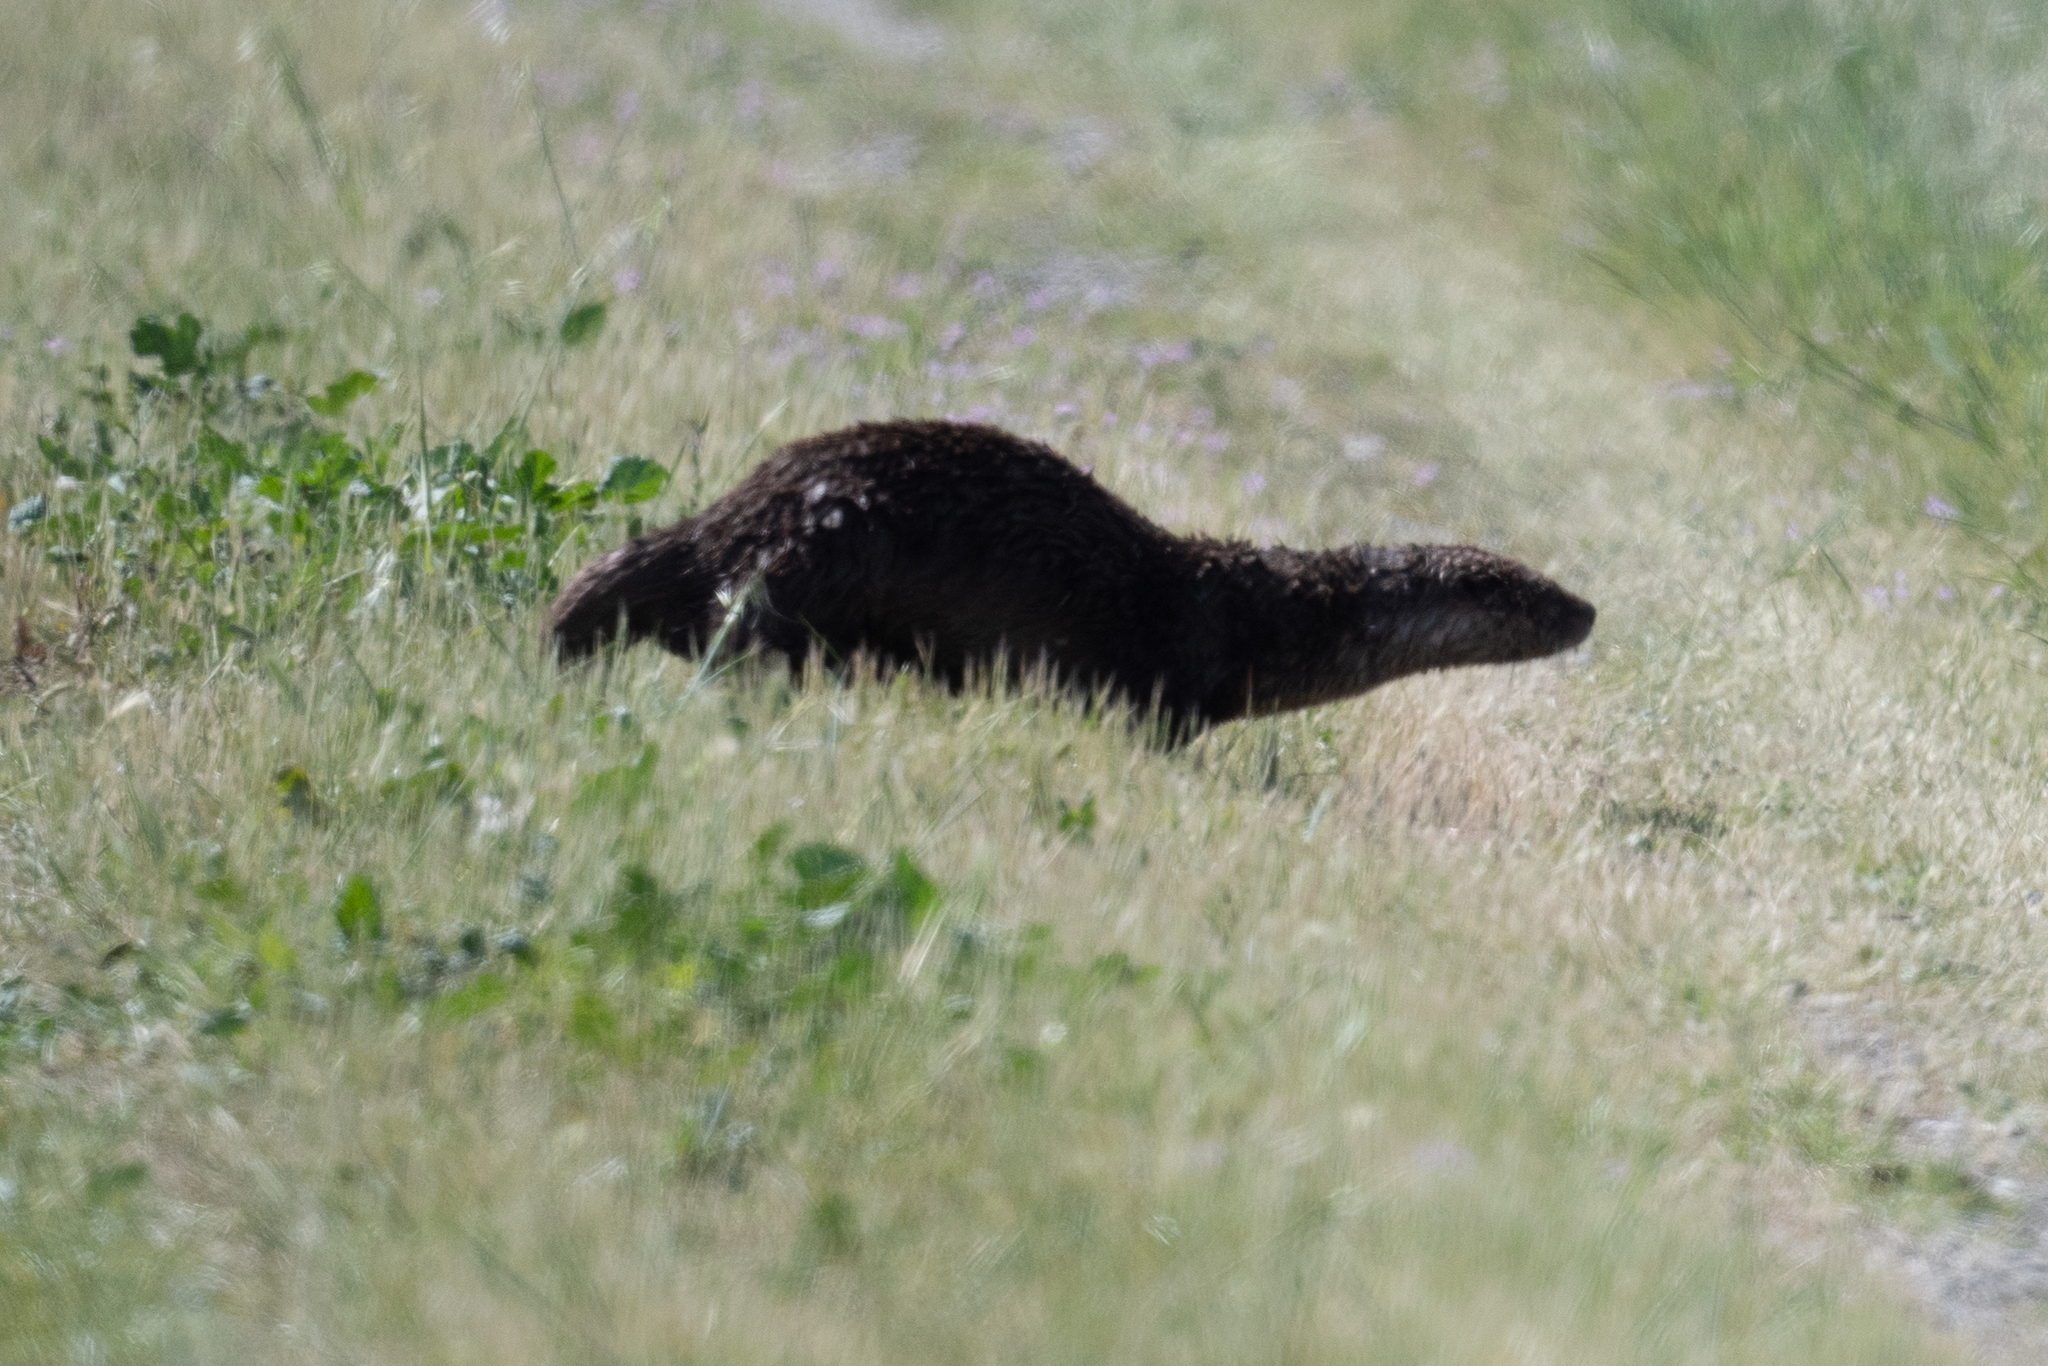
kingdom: Animalia
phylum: Chordata
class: Mammalia
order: Carnivora
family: Mustelidae
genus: Lontra
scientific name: Lontra canadensis
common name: North american river otter
